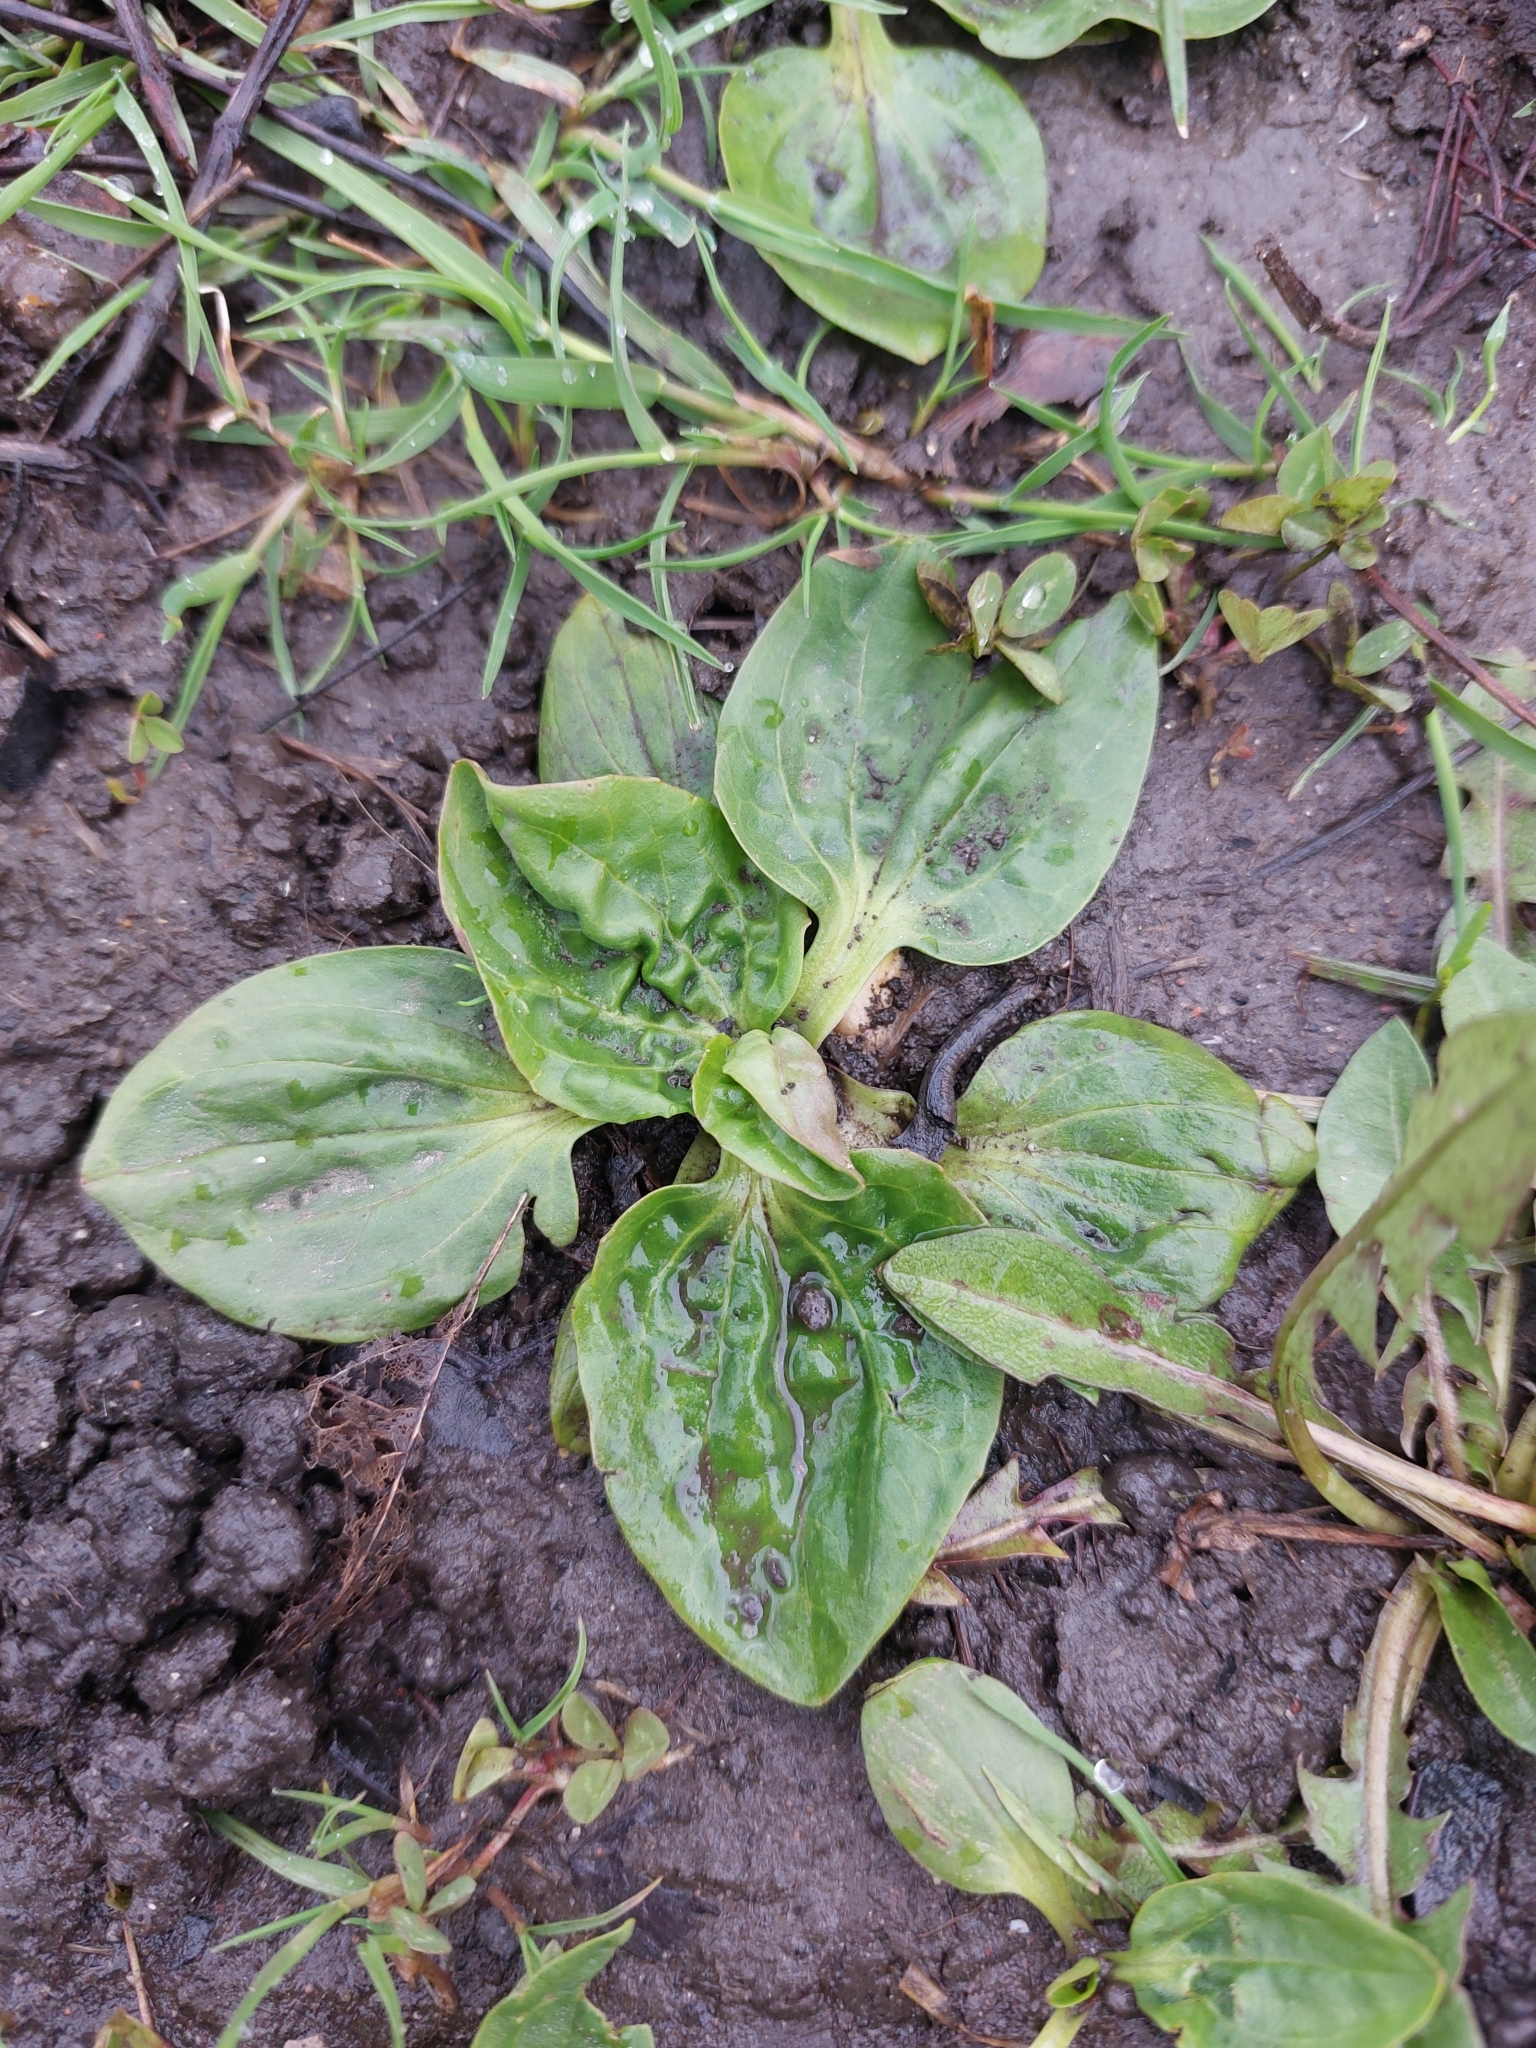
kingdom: Plantae
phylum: Tracheophyta
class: Magnoliopsida
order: Lamiales
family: Plantaginaceae
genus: Plantago
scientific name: Plantago major
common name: Common plantain
